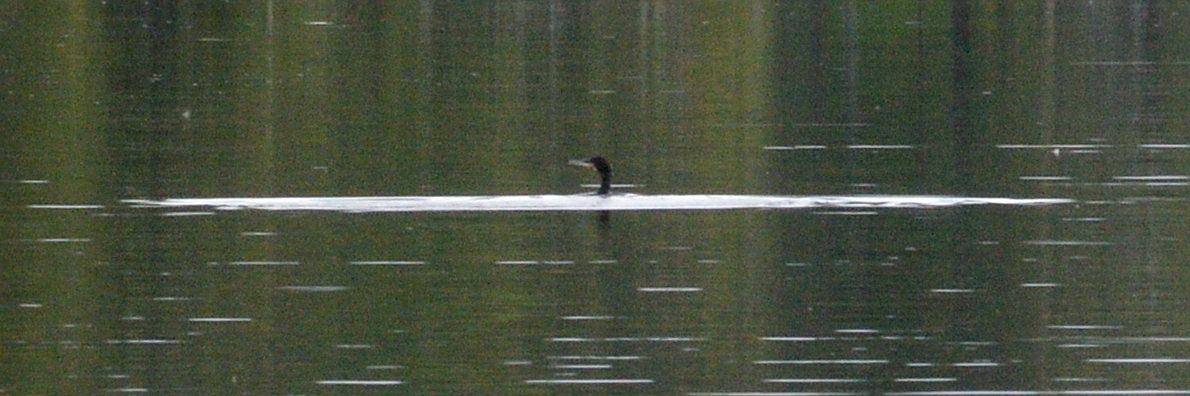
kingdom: Animalia
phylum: Chordata
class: Aves
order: Suliformes
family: Phalacrocoracidae
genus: Phalacrocorax
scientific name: Phalacrocorax carbo
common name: Great cormorant
